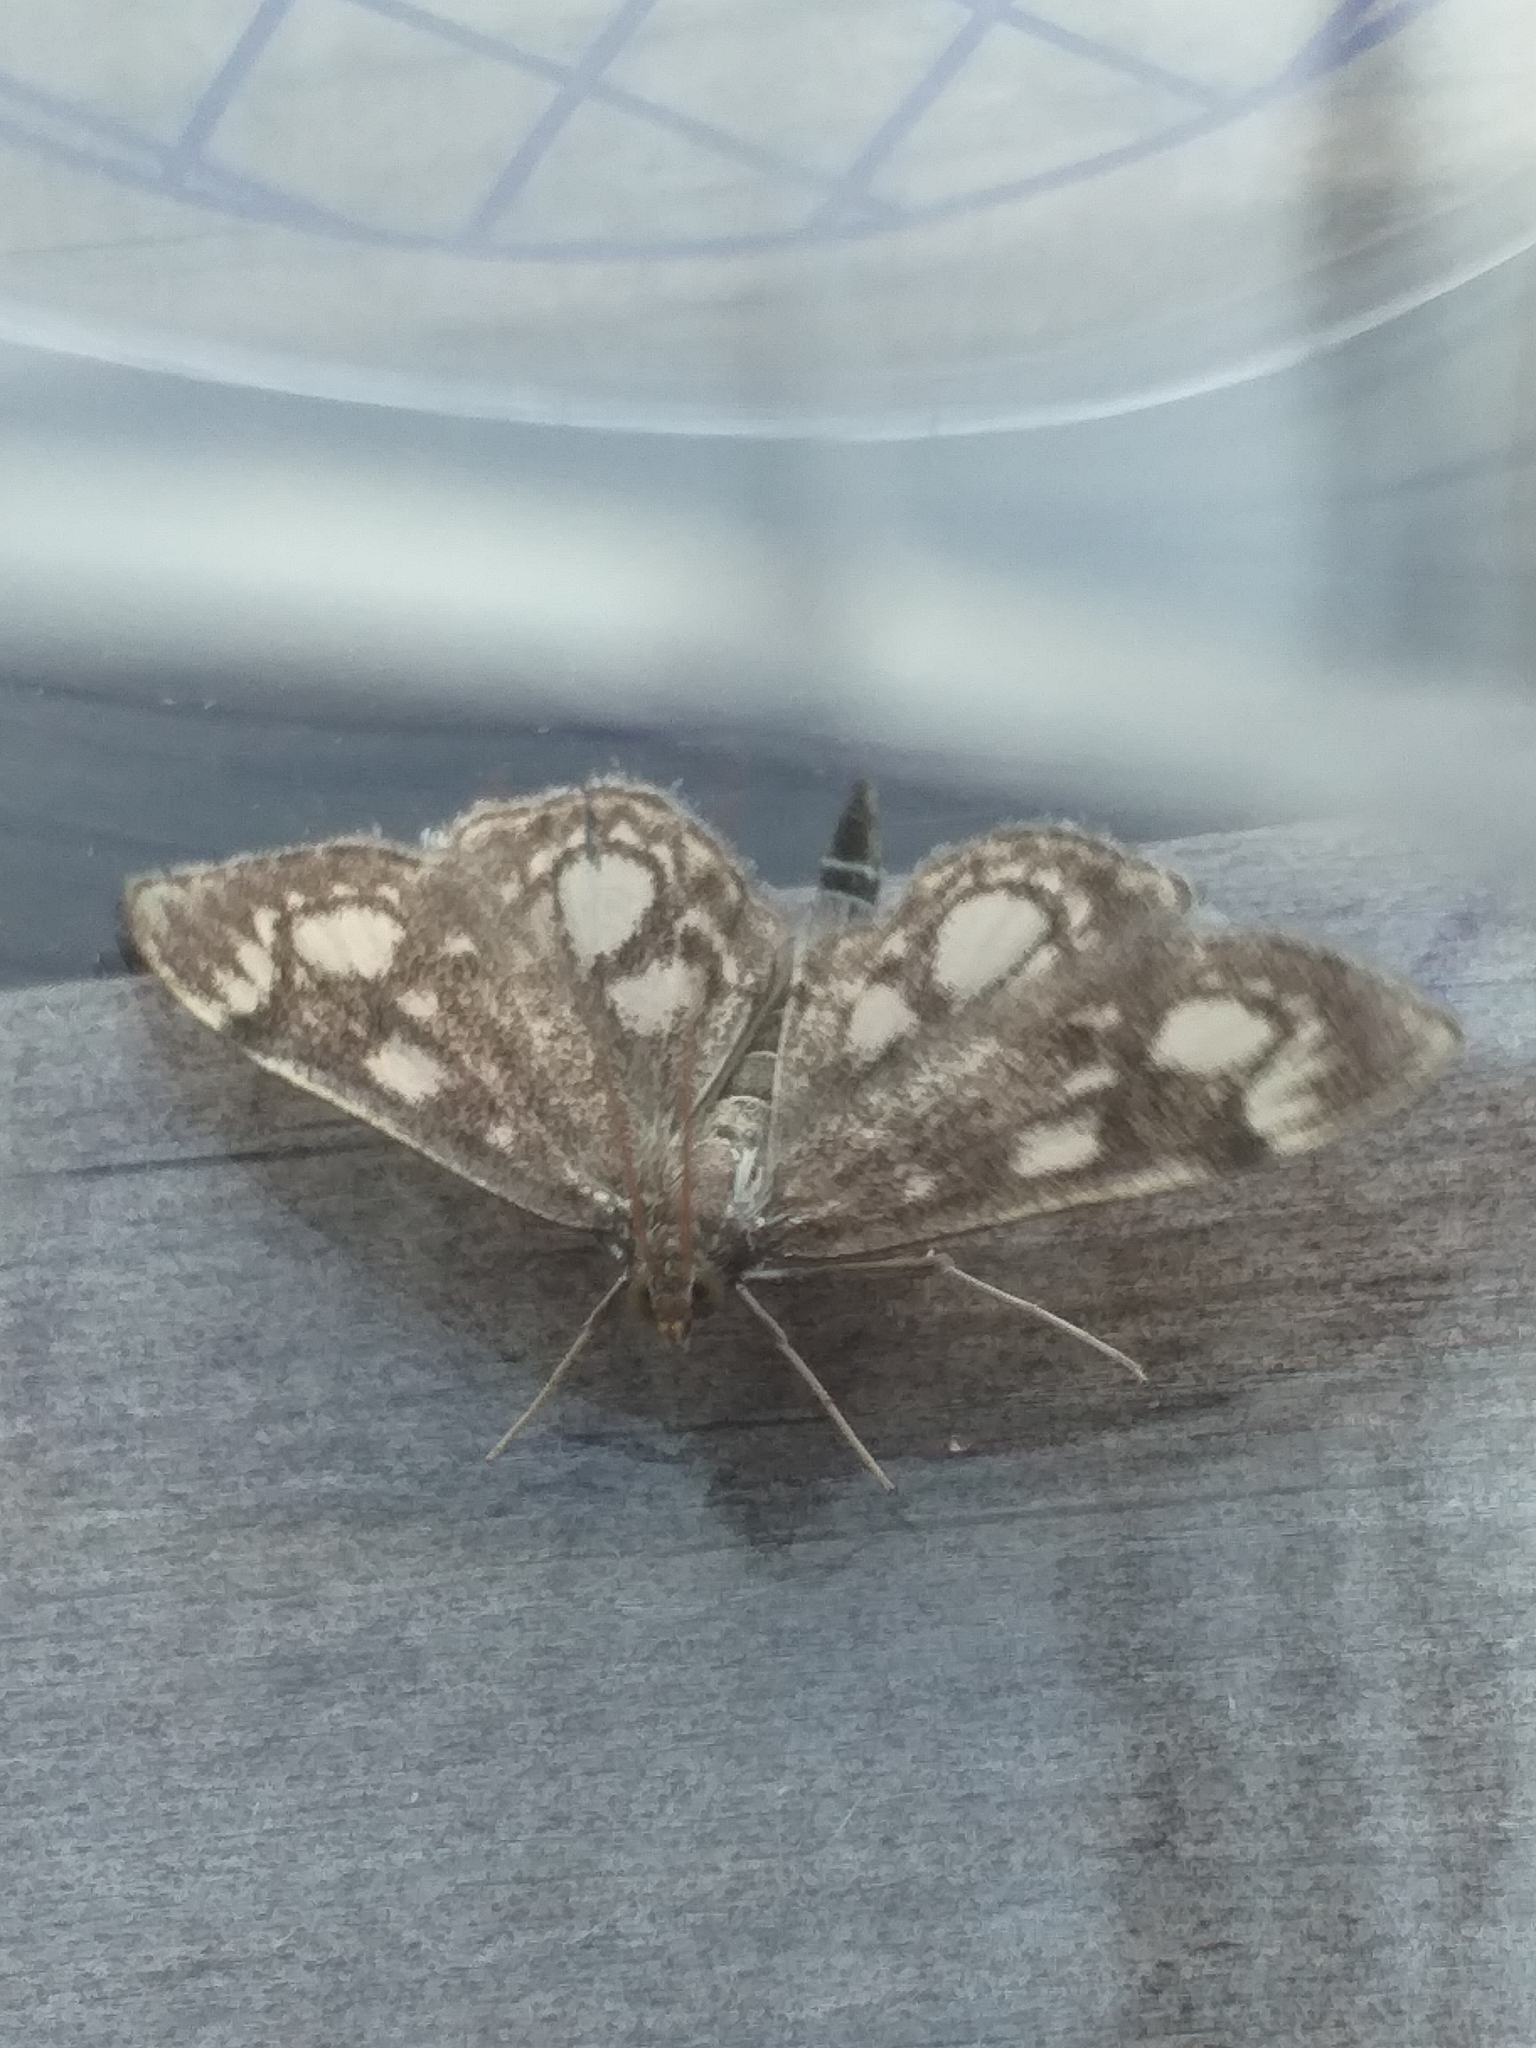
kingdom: Animalia
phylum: Arthropoda
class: Insecta
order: Lepidoptera
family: Crambidae
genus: Anania
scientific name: Anania coronata
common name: Elder pearl
